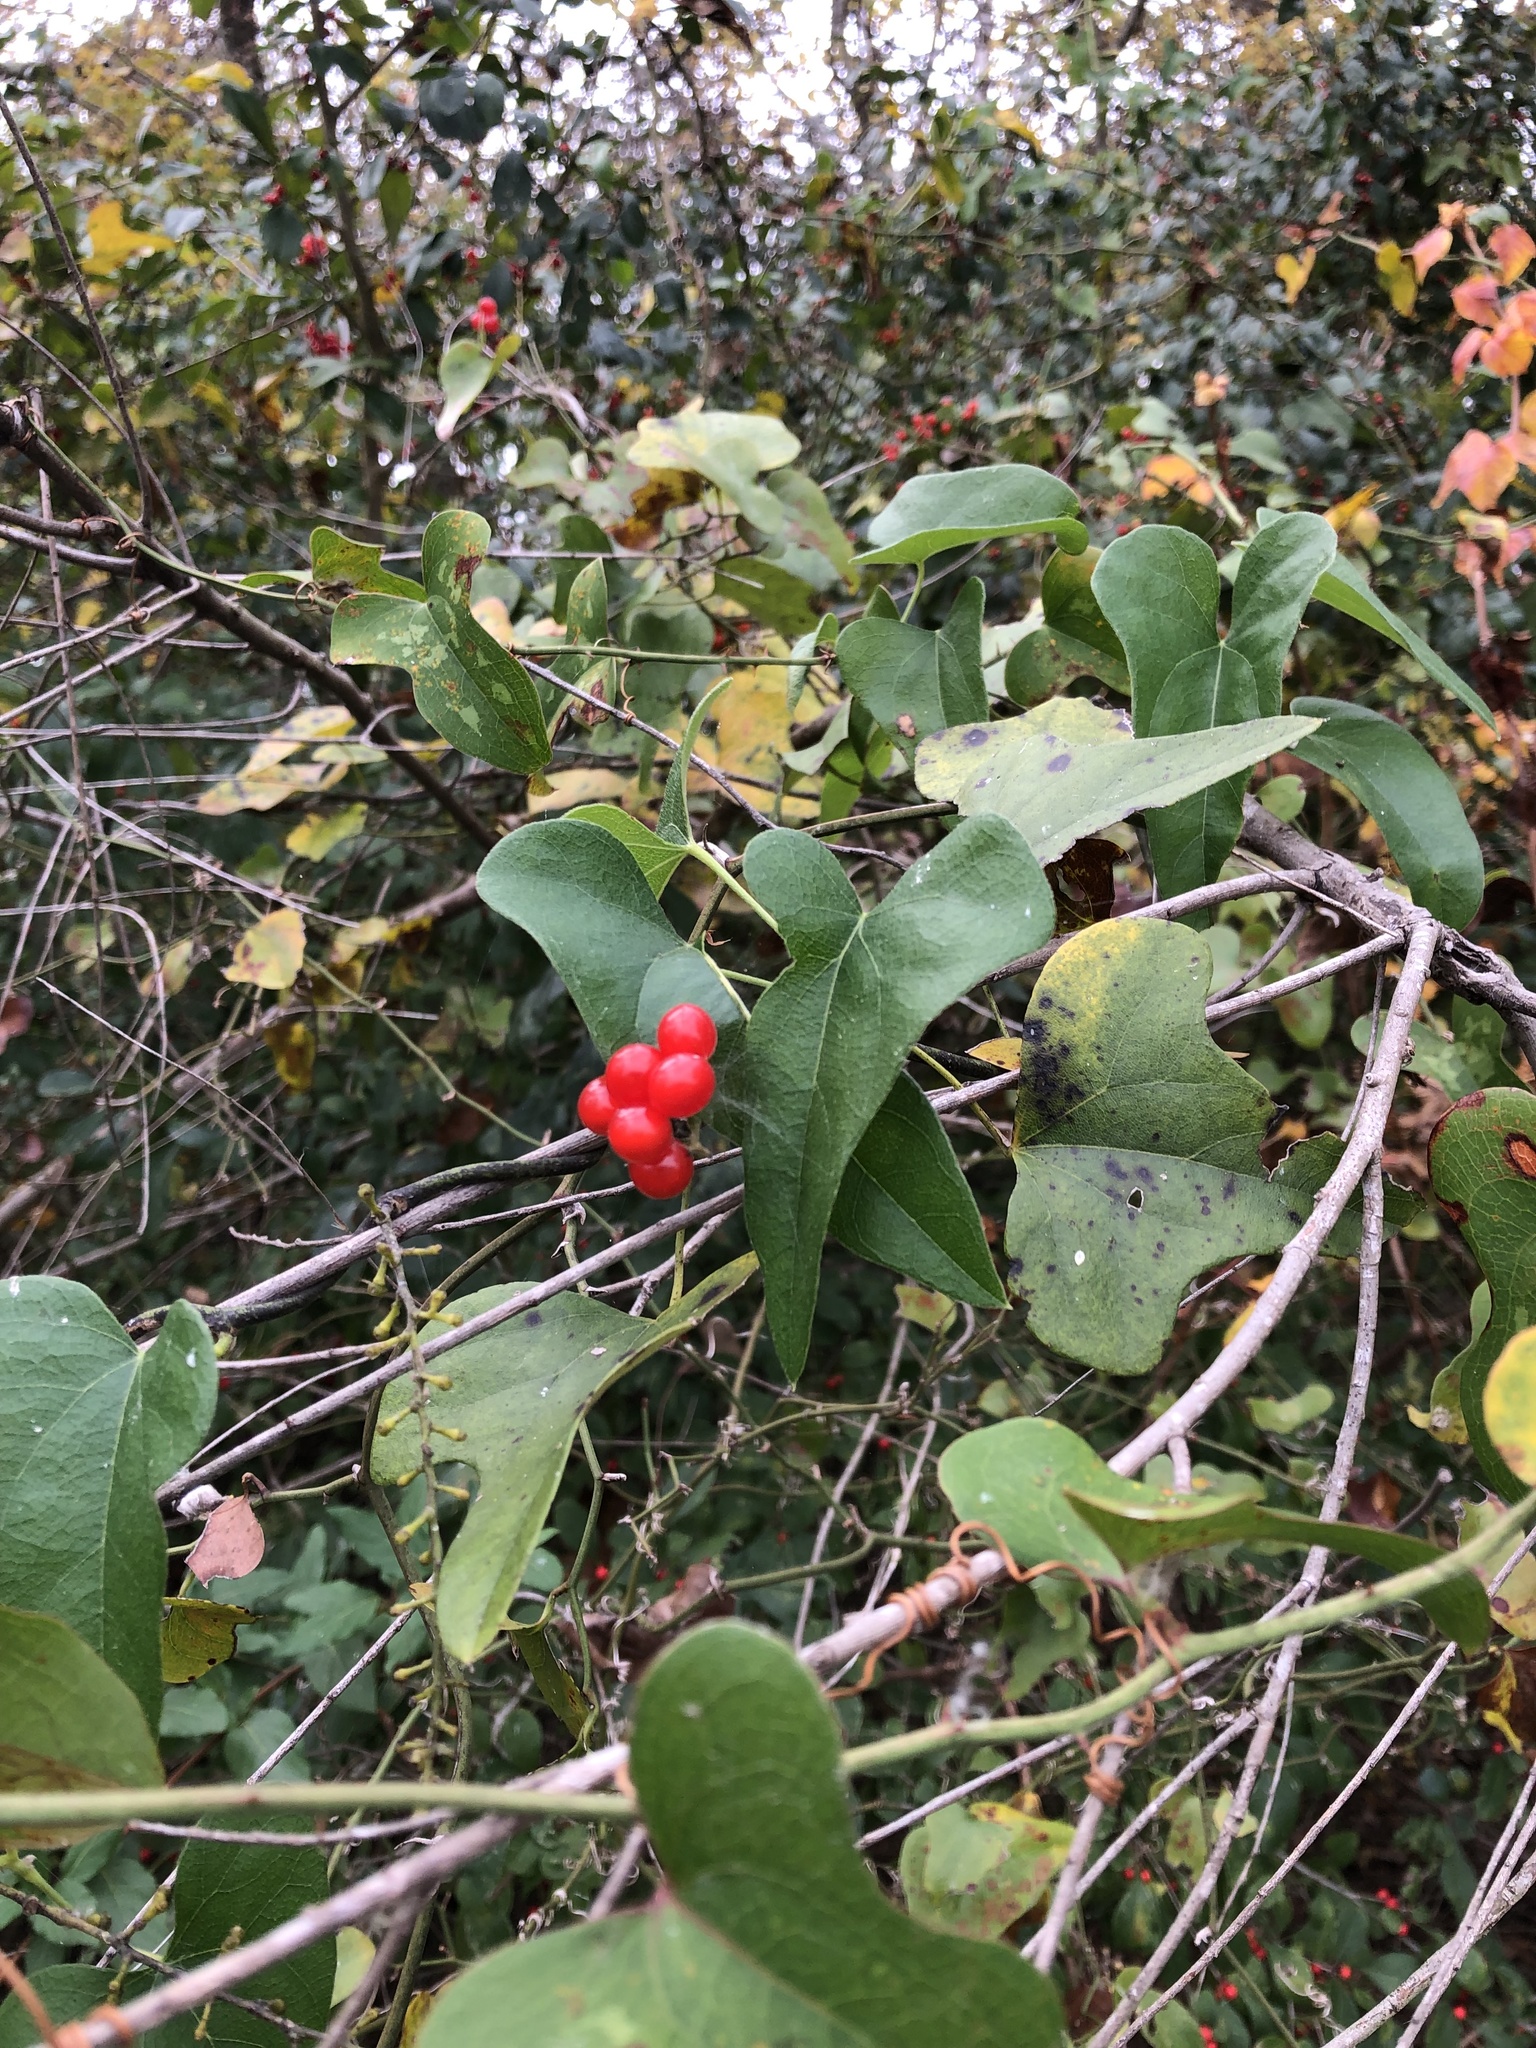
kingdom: Plantae
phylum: Tracheophyta
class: Magnoliopsida
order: Ranunculales
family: Menispermaceae
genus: Cocculus
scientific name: Cocculus carolinus
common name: Carolina moonseed
